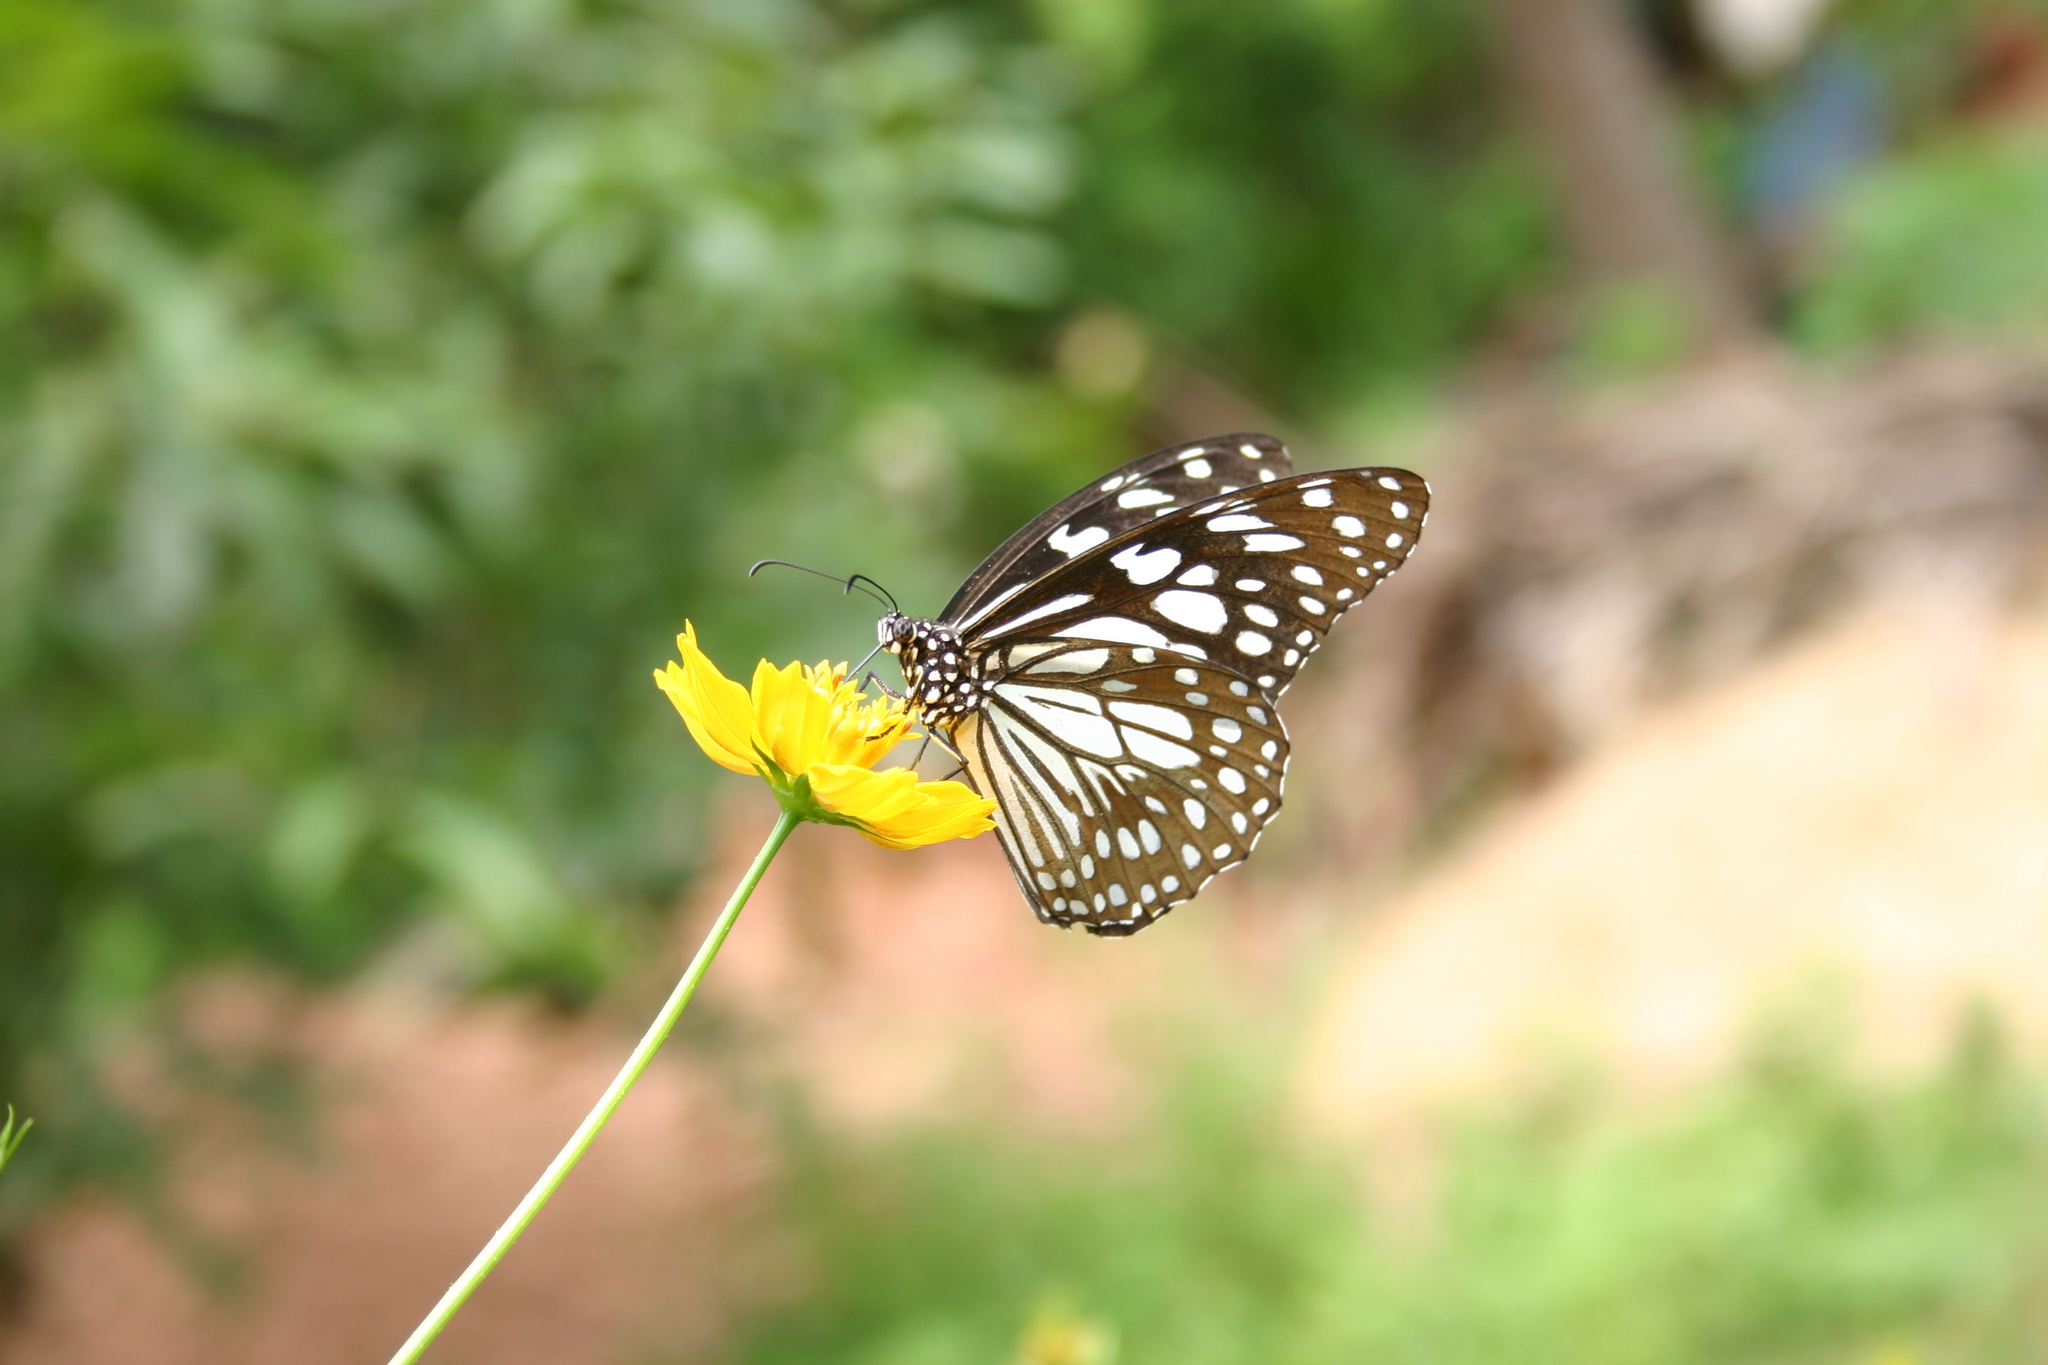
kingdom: Animalia
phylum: Arthropoda
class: Insecta
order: Lepidoptera
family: Nymphalidae
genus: Tirumala
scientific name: Tirumala limniace
